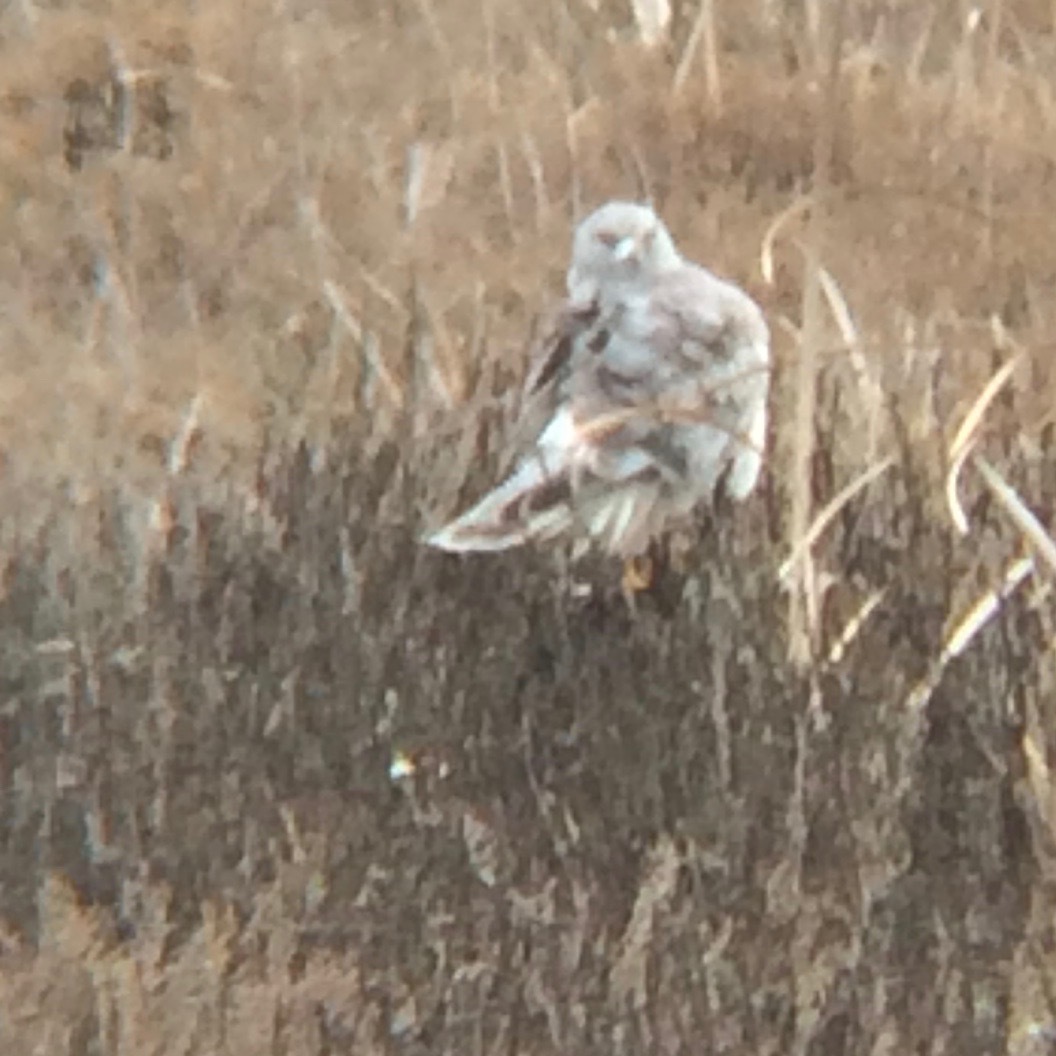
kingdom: Animalia
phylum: Chordata
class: Aves
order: Accipitriformes
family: Accipitridae
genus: Circus
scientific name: Circus cyaneus
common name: Hen harrier
